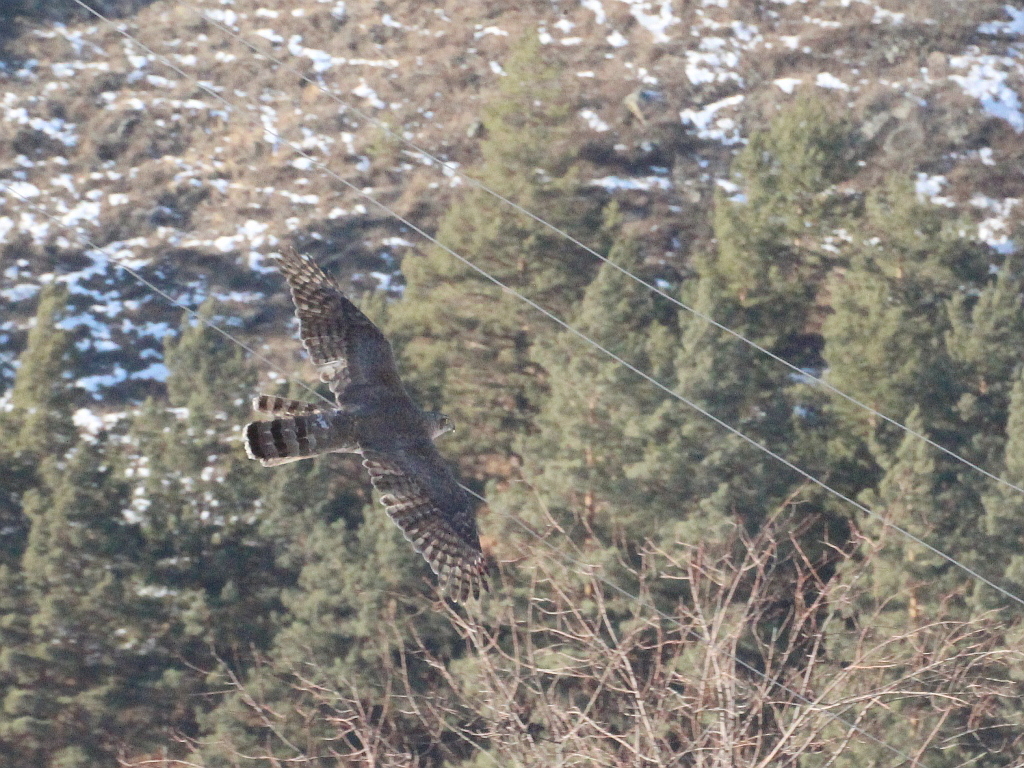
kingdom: Animalia
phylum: Chordata
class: Aves
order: Accipitriformes
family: Accipitridae
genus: Accipiter
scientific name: Accipiter gentilis
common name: Northern goshawk
